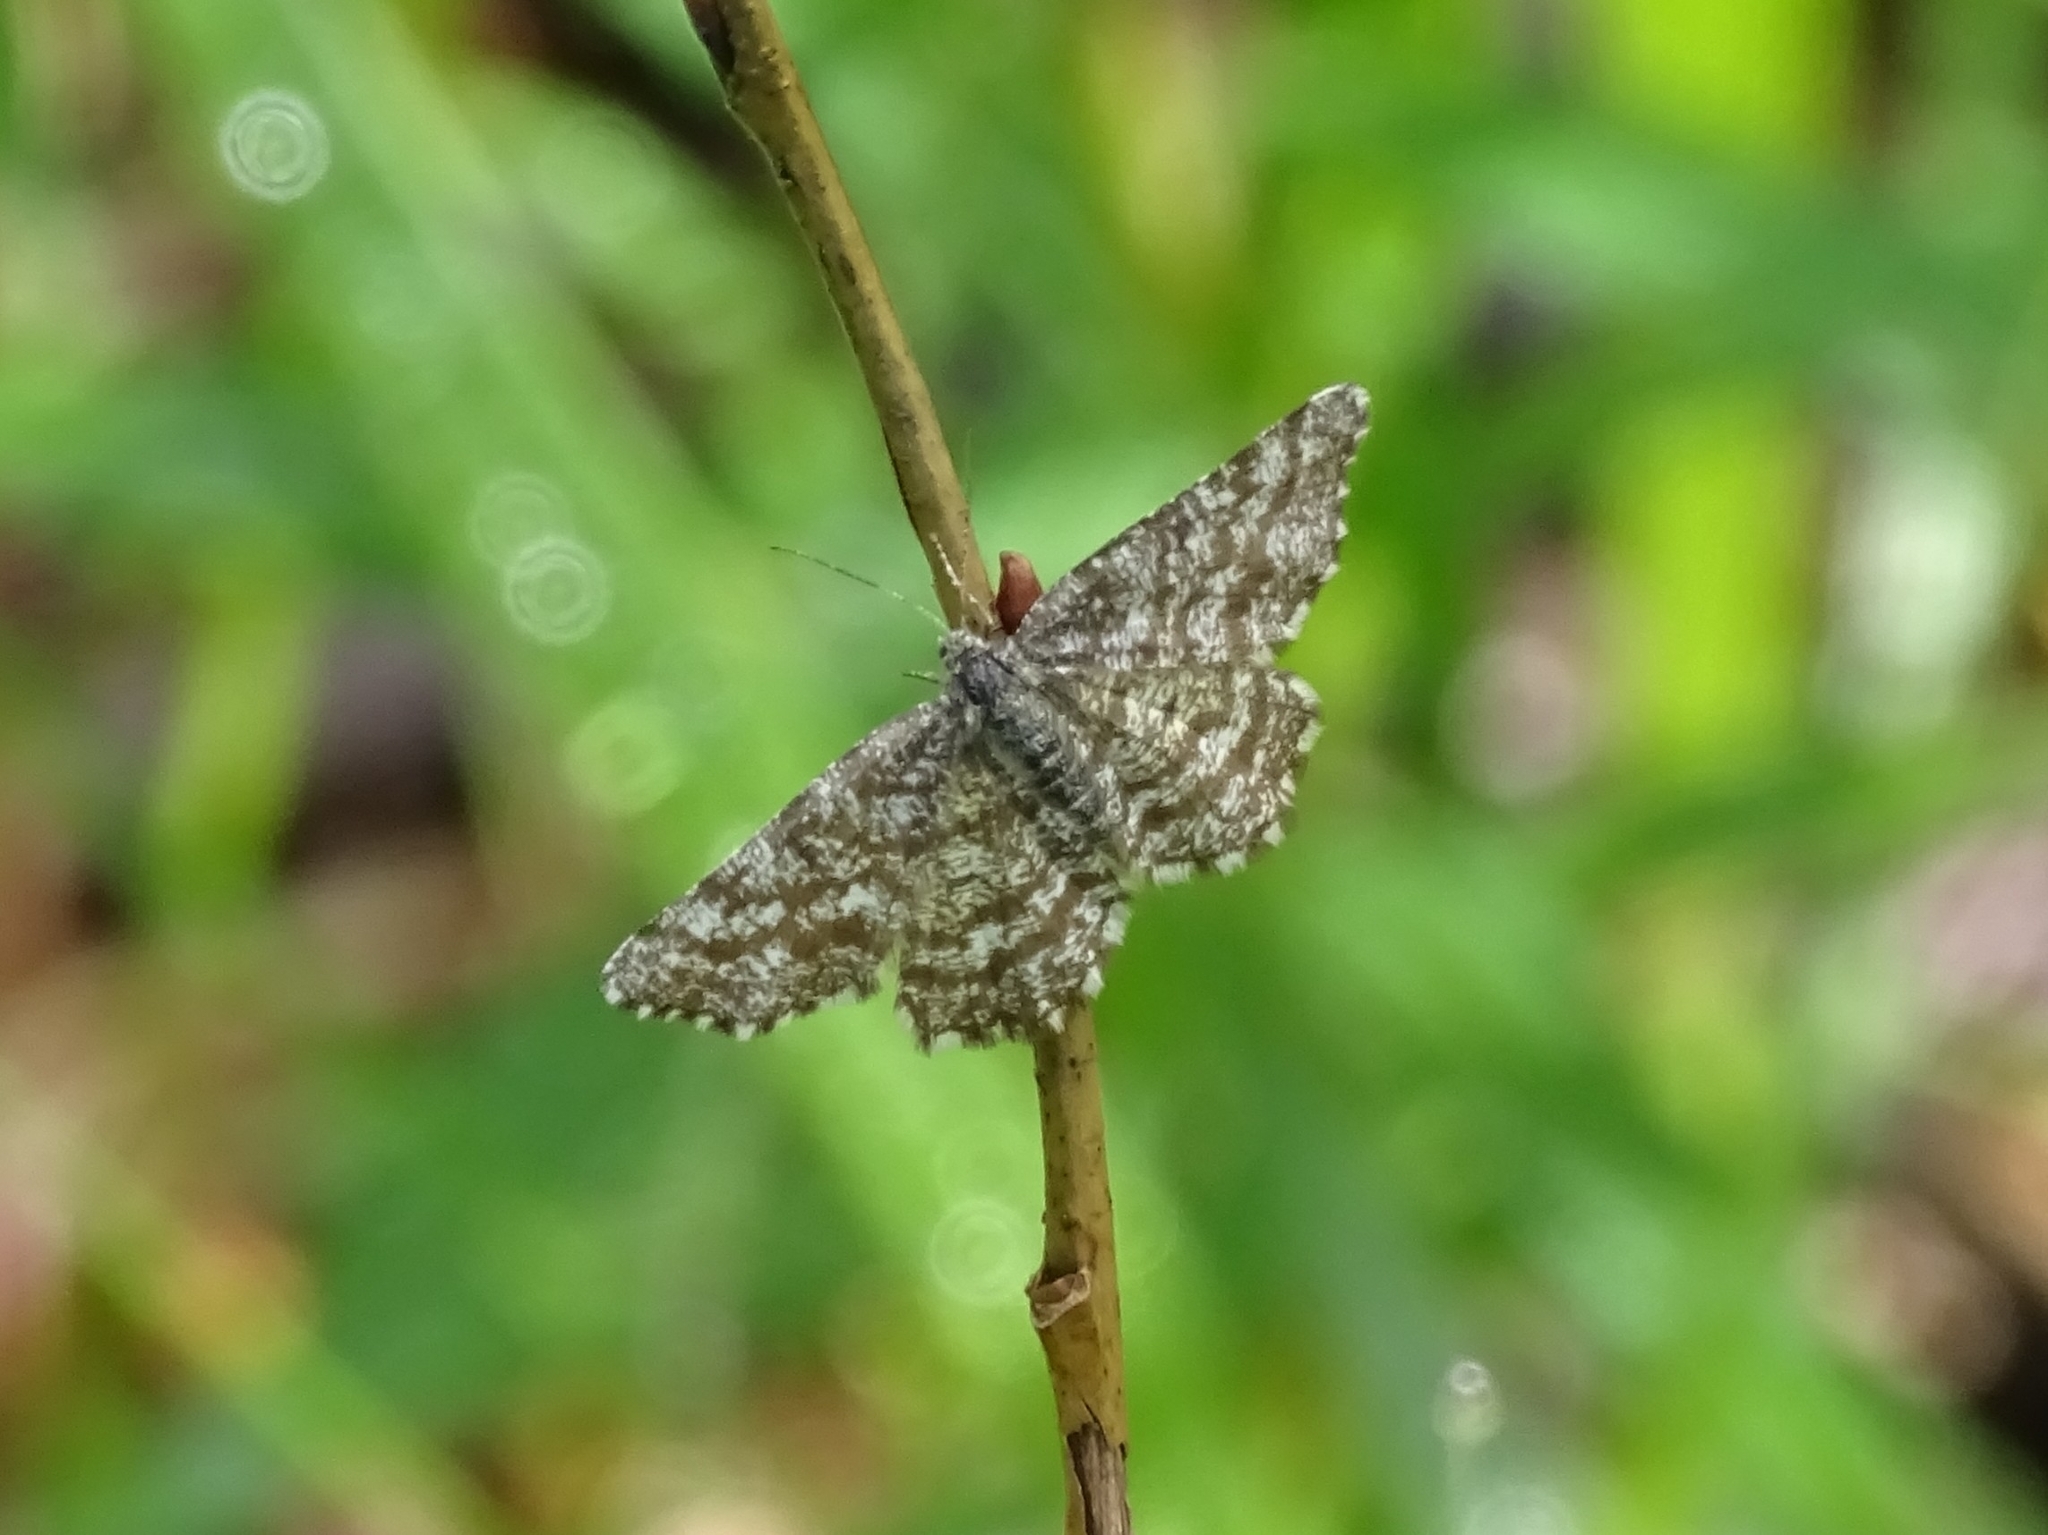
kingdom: Animalia
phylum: Arthropoda
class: Insecta
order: Lepidoptera
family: Geometridae
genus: Ematurga
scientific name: Ematurga atomaria
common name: Common heath
